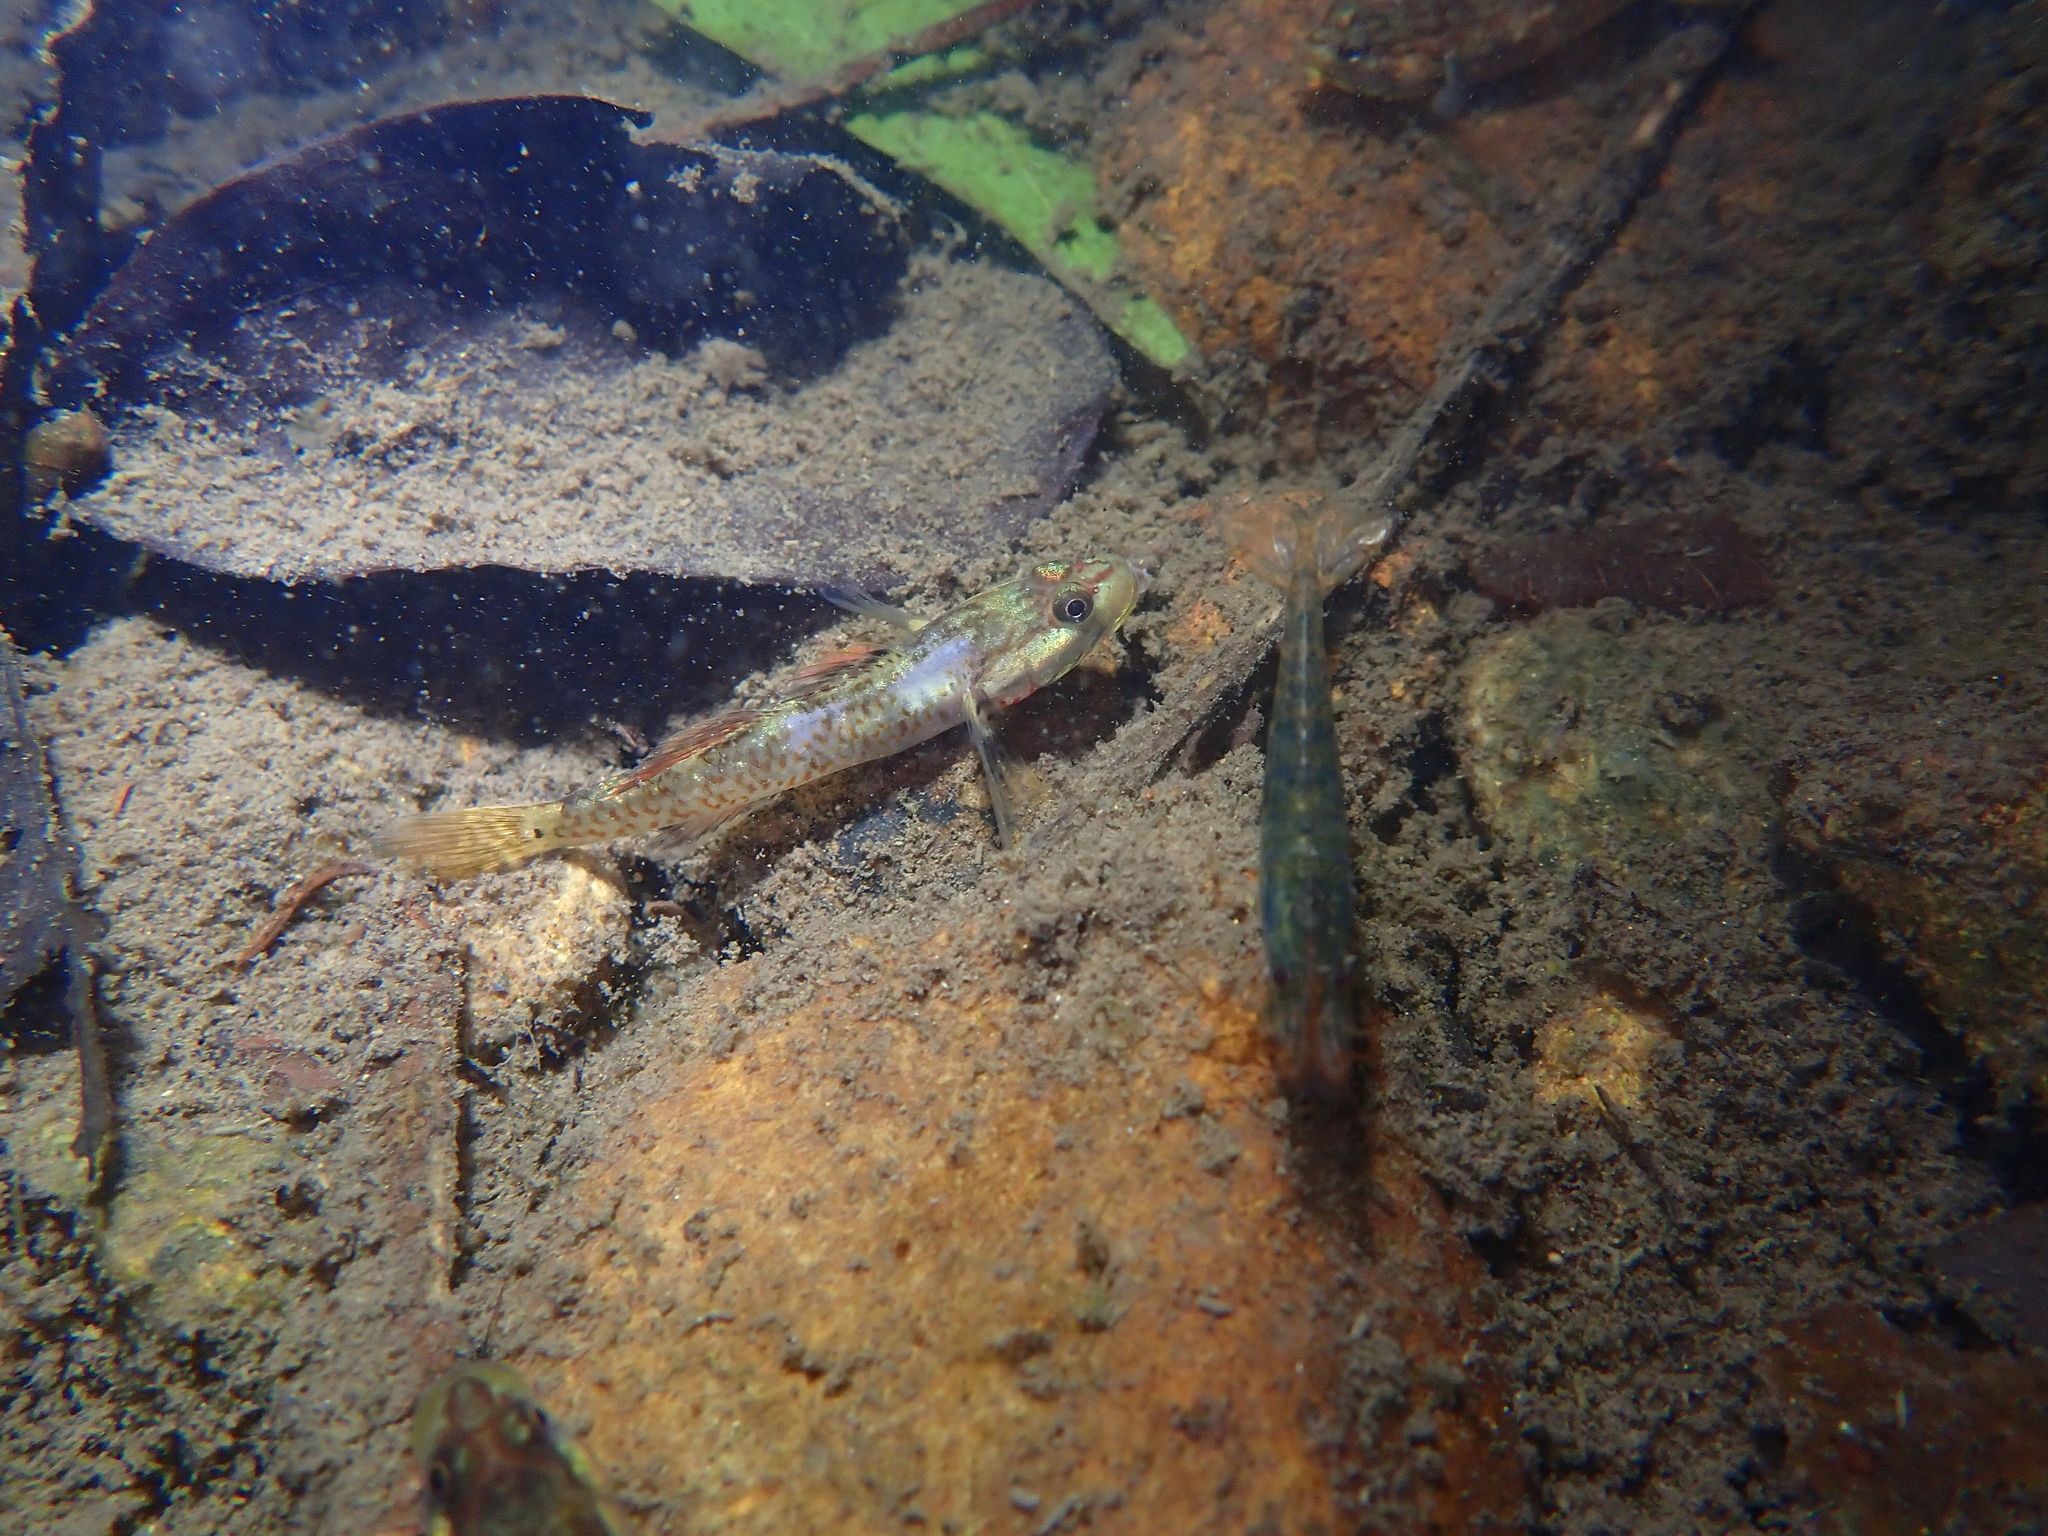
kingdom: Animalia
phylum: Chordata
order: Perciformes
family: Gobiidae
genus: Rhinogobius
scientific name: Rhinogobius duospilus
